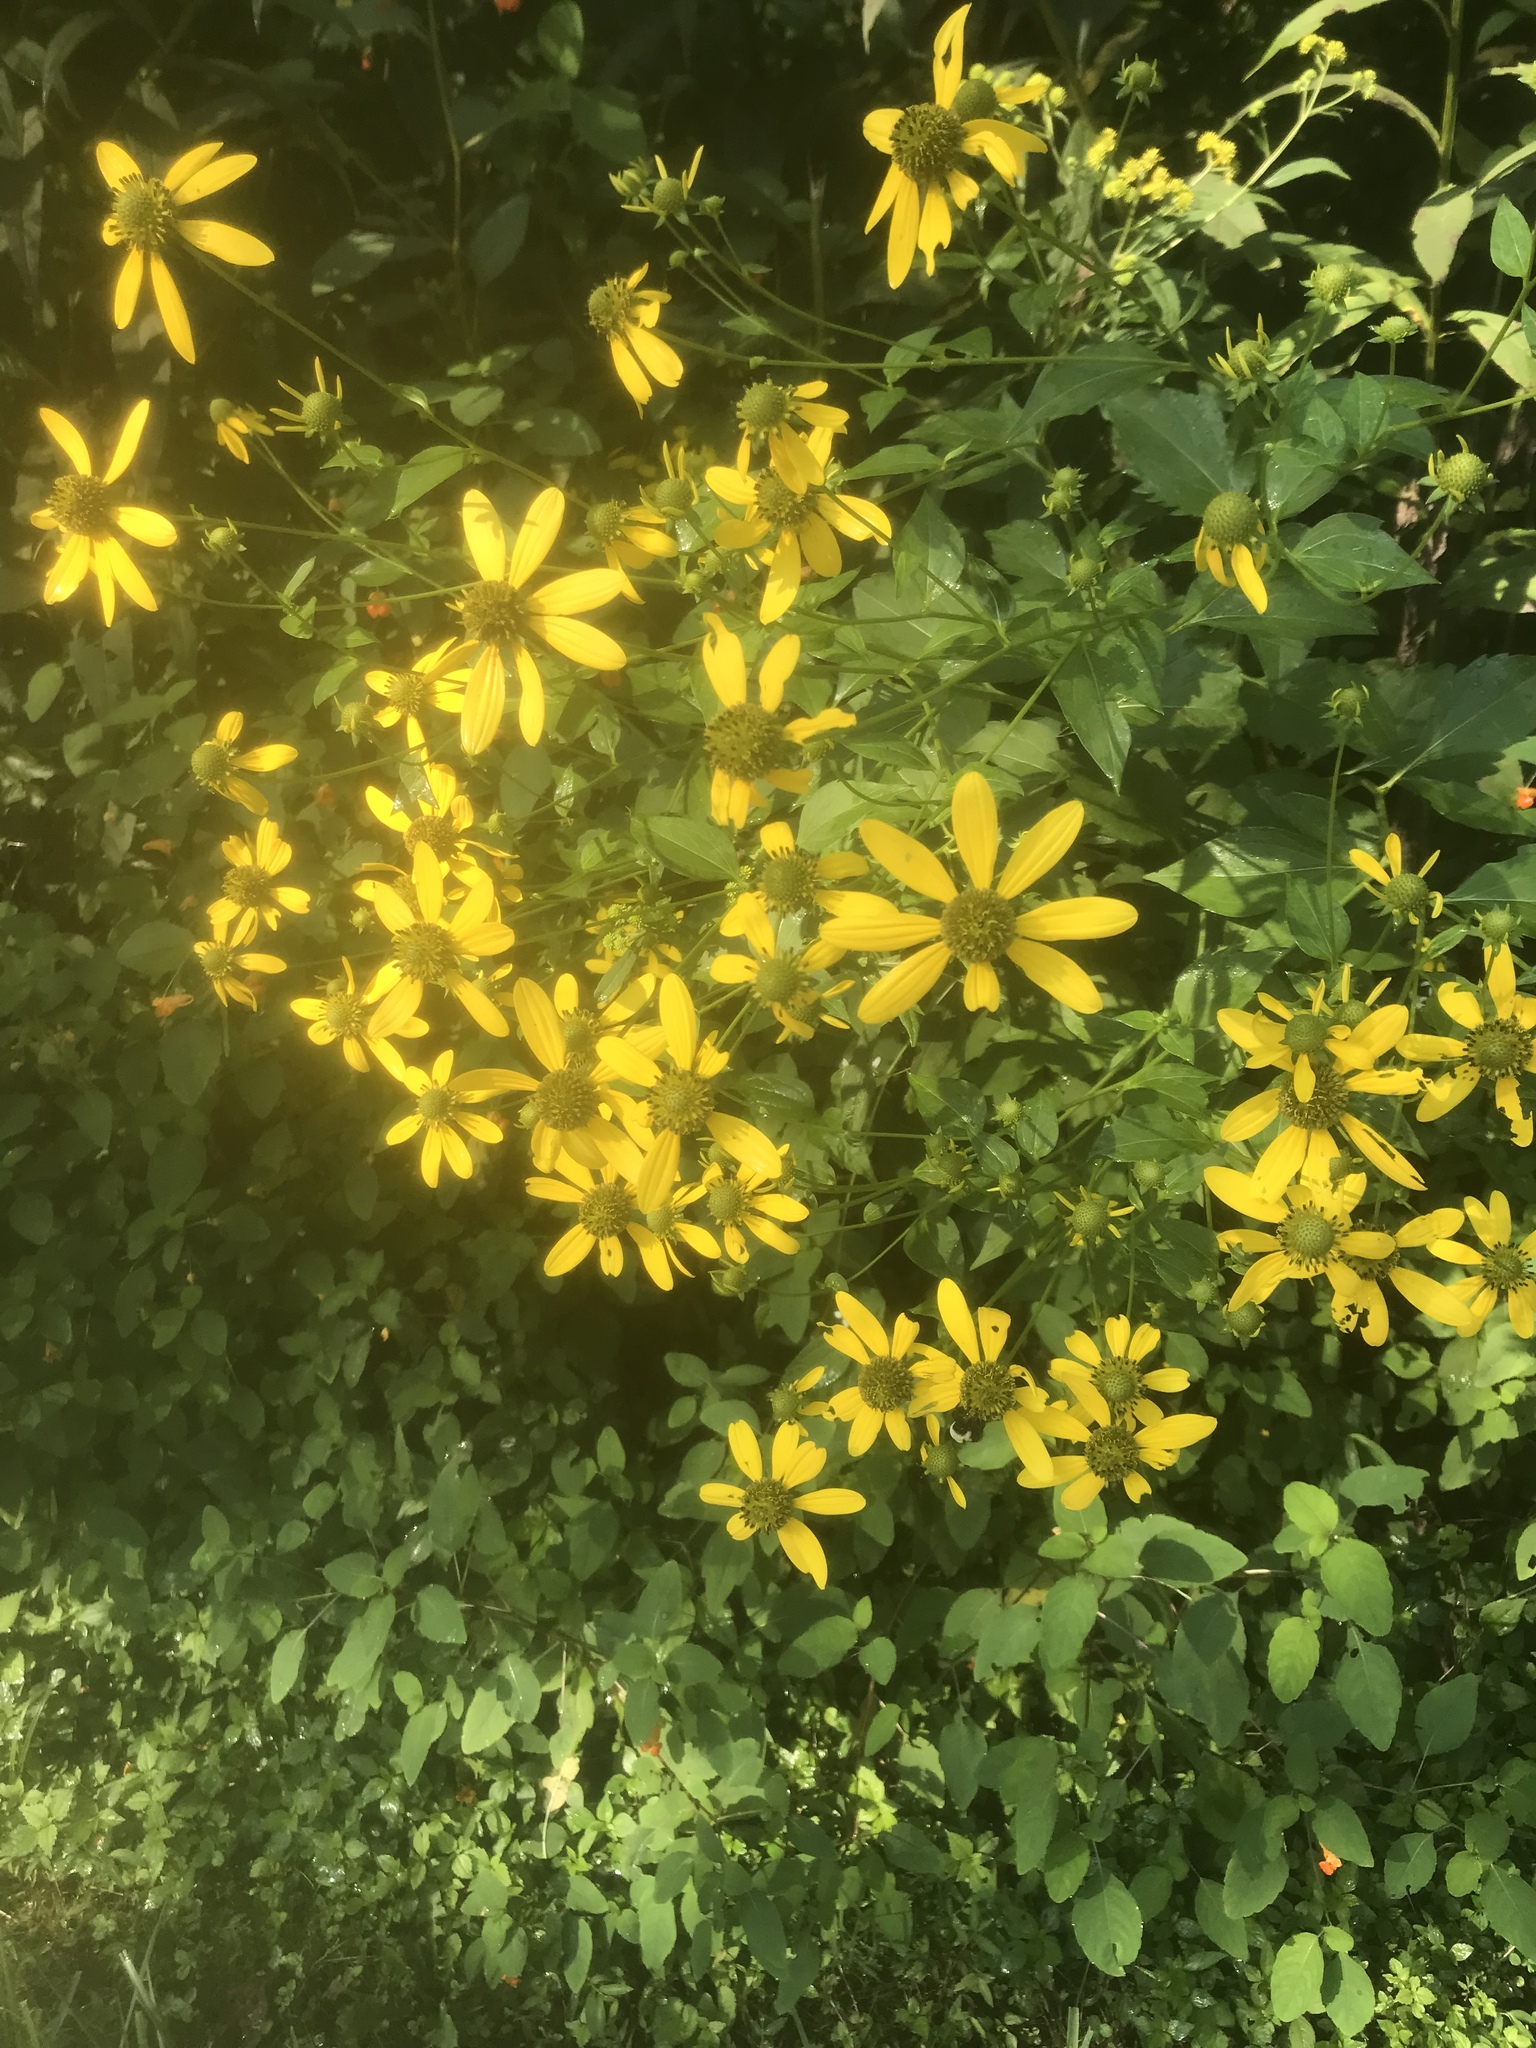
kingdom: Plantae
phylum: Tracheophyta
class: Magnoliopsida
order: Asterales
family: Asteraceae
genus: Rudbeckia
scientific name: Rudbeckia laciniata
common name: Coneflower
